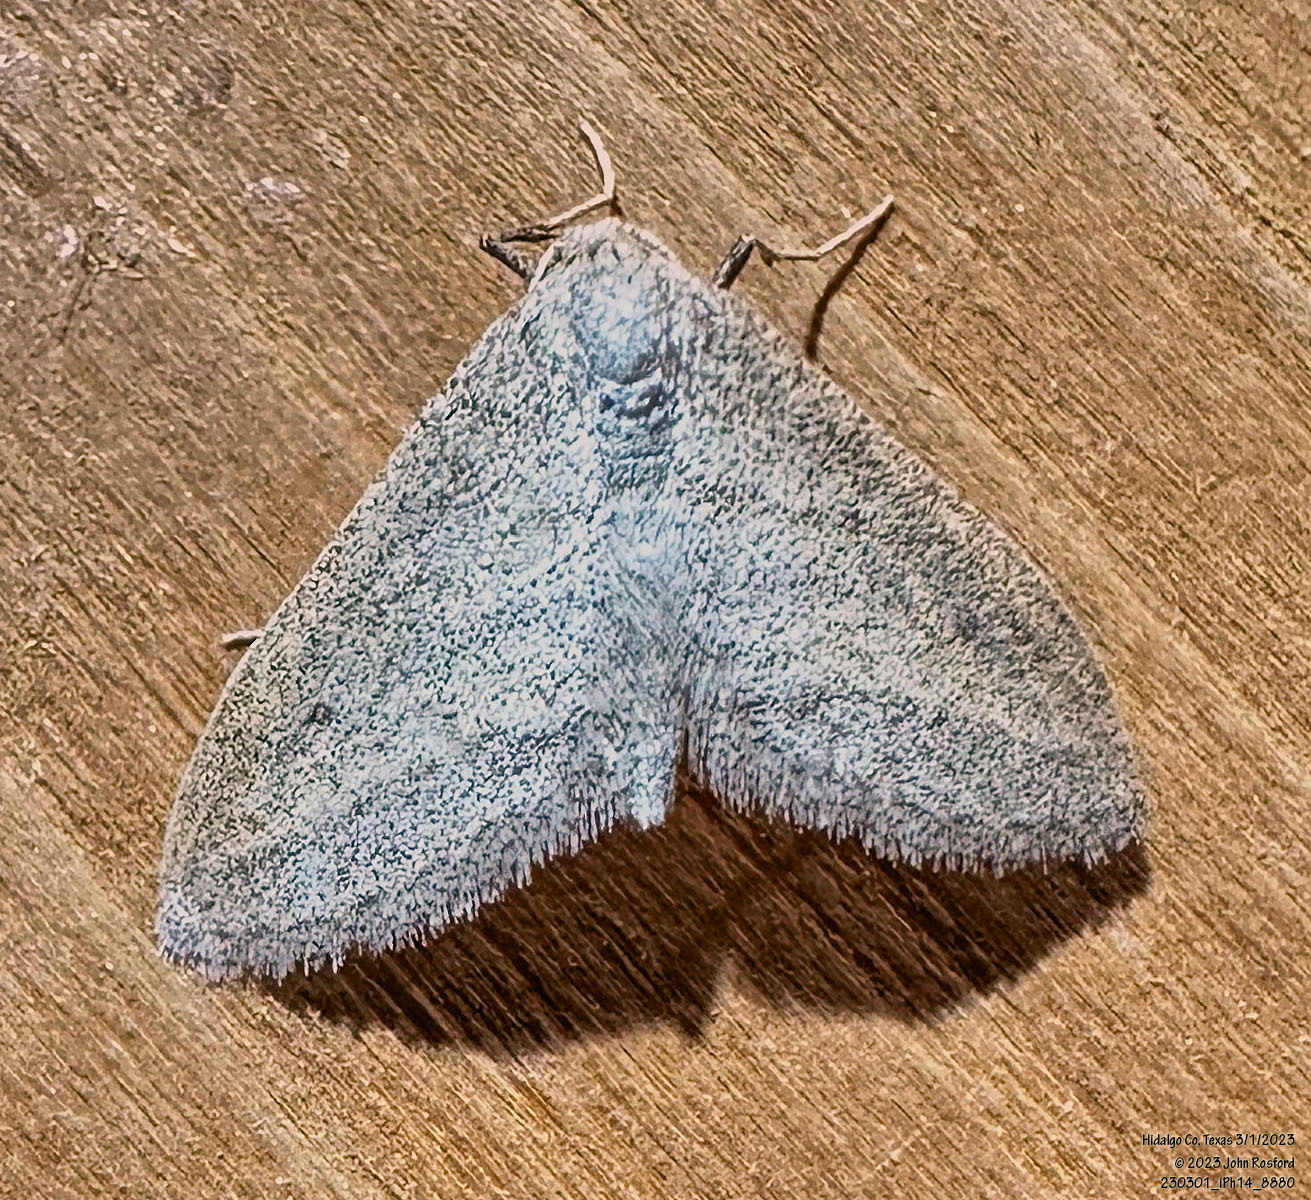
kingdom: Animalia
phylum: Arthropoda
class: Insecta
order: Lepidoptera
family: Geometridae
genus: Lobocleta
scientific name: Lobocleta plemyraria
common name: Straight-lined wave
